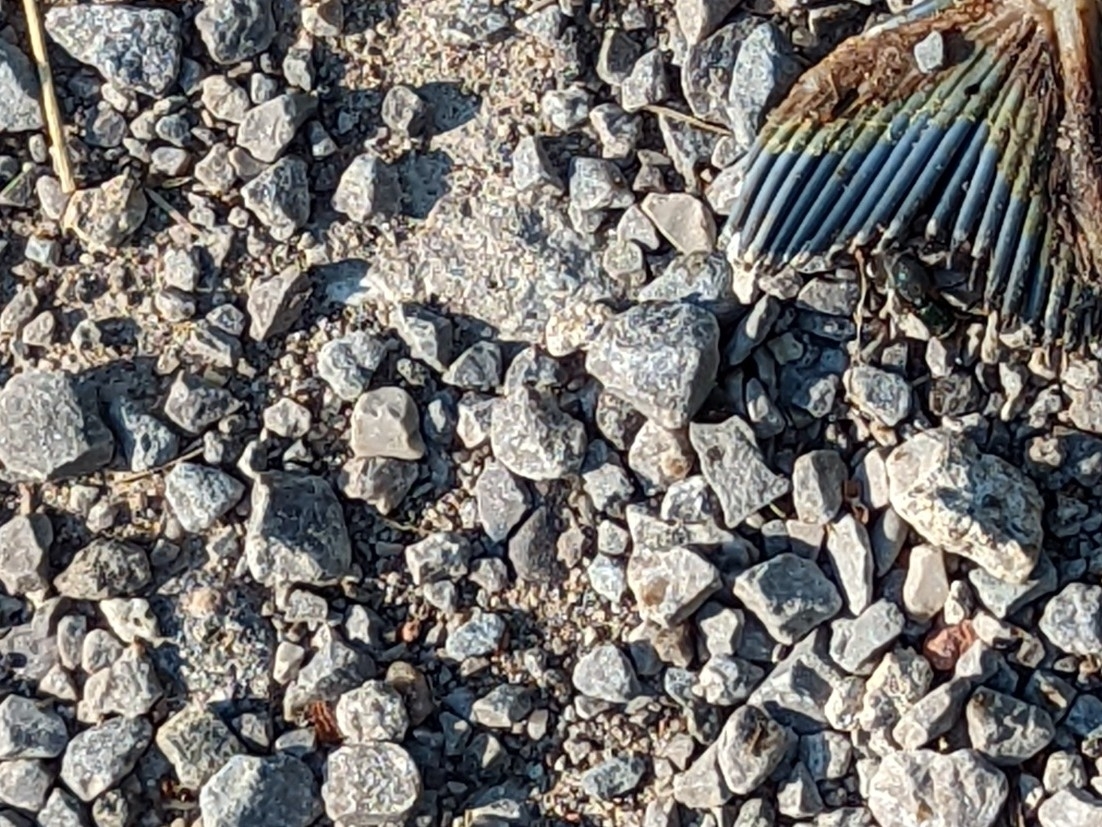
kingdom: Animalia
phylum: Chordata
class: Aves
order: Passeriformes
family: Corvidae
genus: Cyanocitta
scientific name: Cyanocitta cristata
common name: Blue jay
